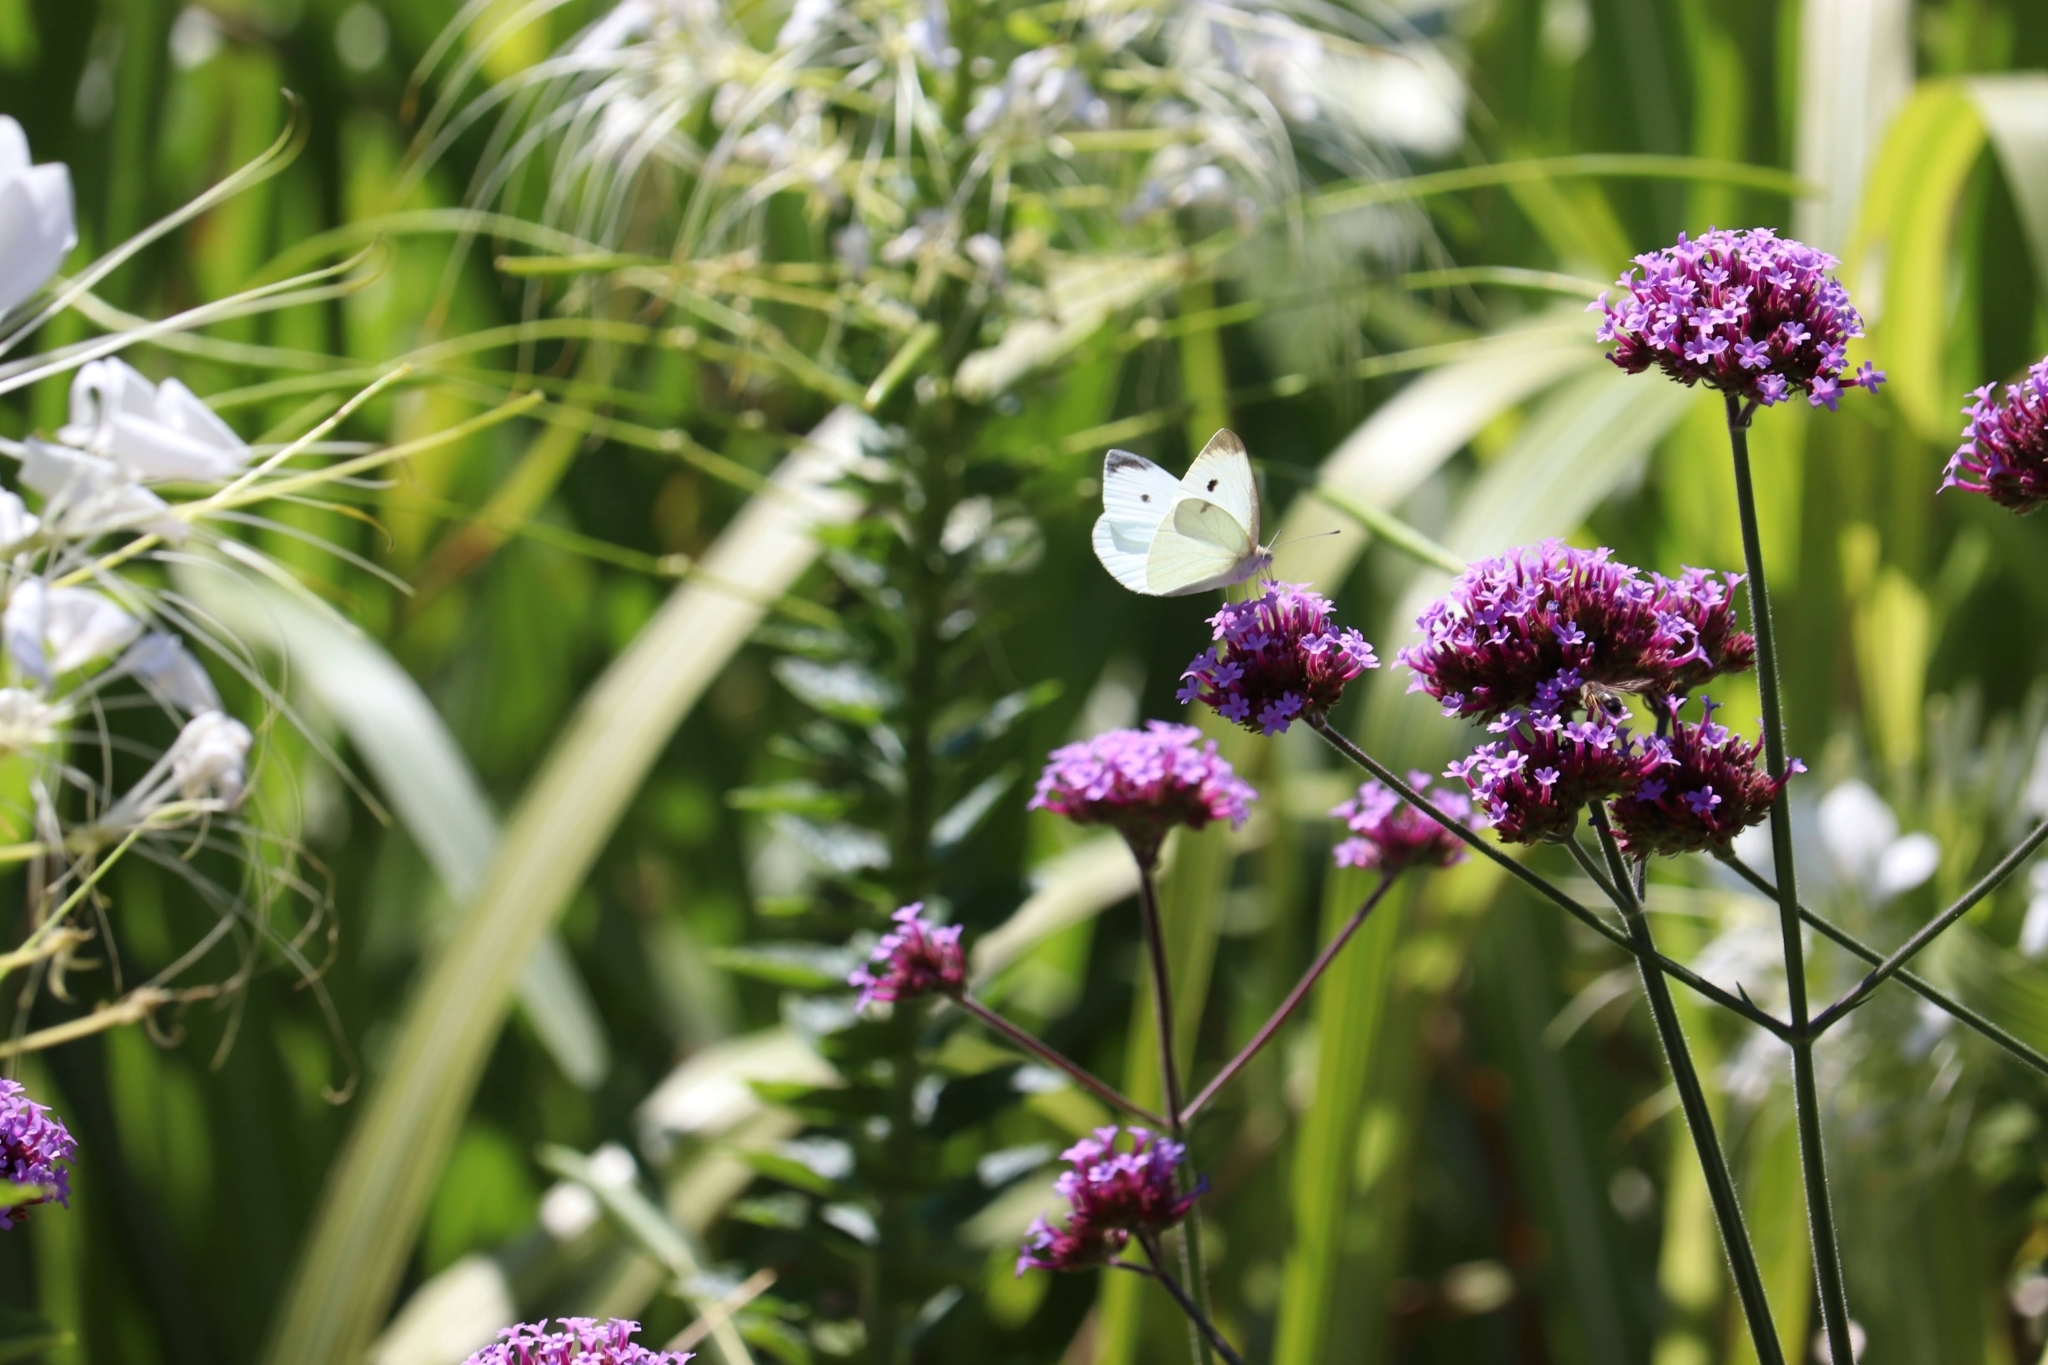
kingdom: Animalia
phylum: Arthropoda
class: Insecta
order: Lepidoptera
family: Pieridae
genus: Pieris
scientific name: Pieris rapae
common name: Small white
